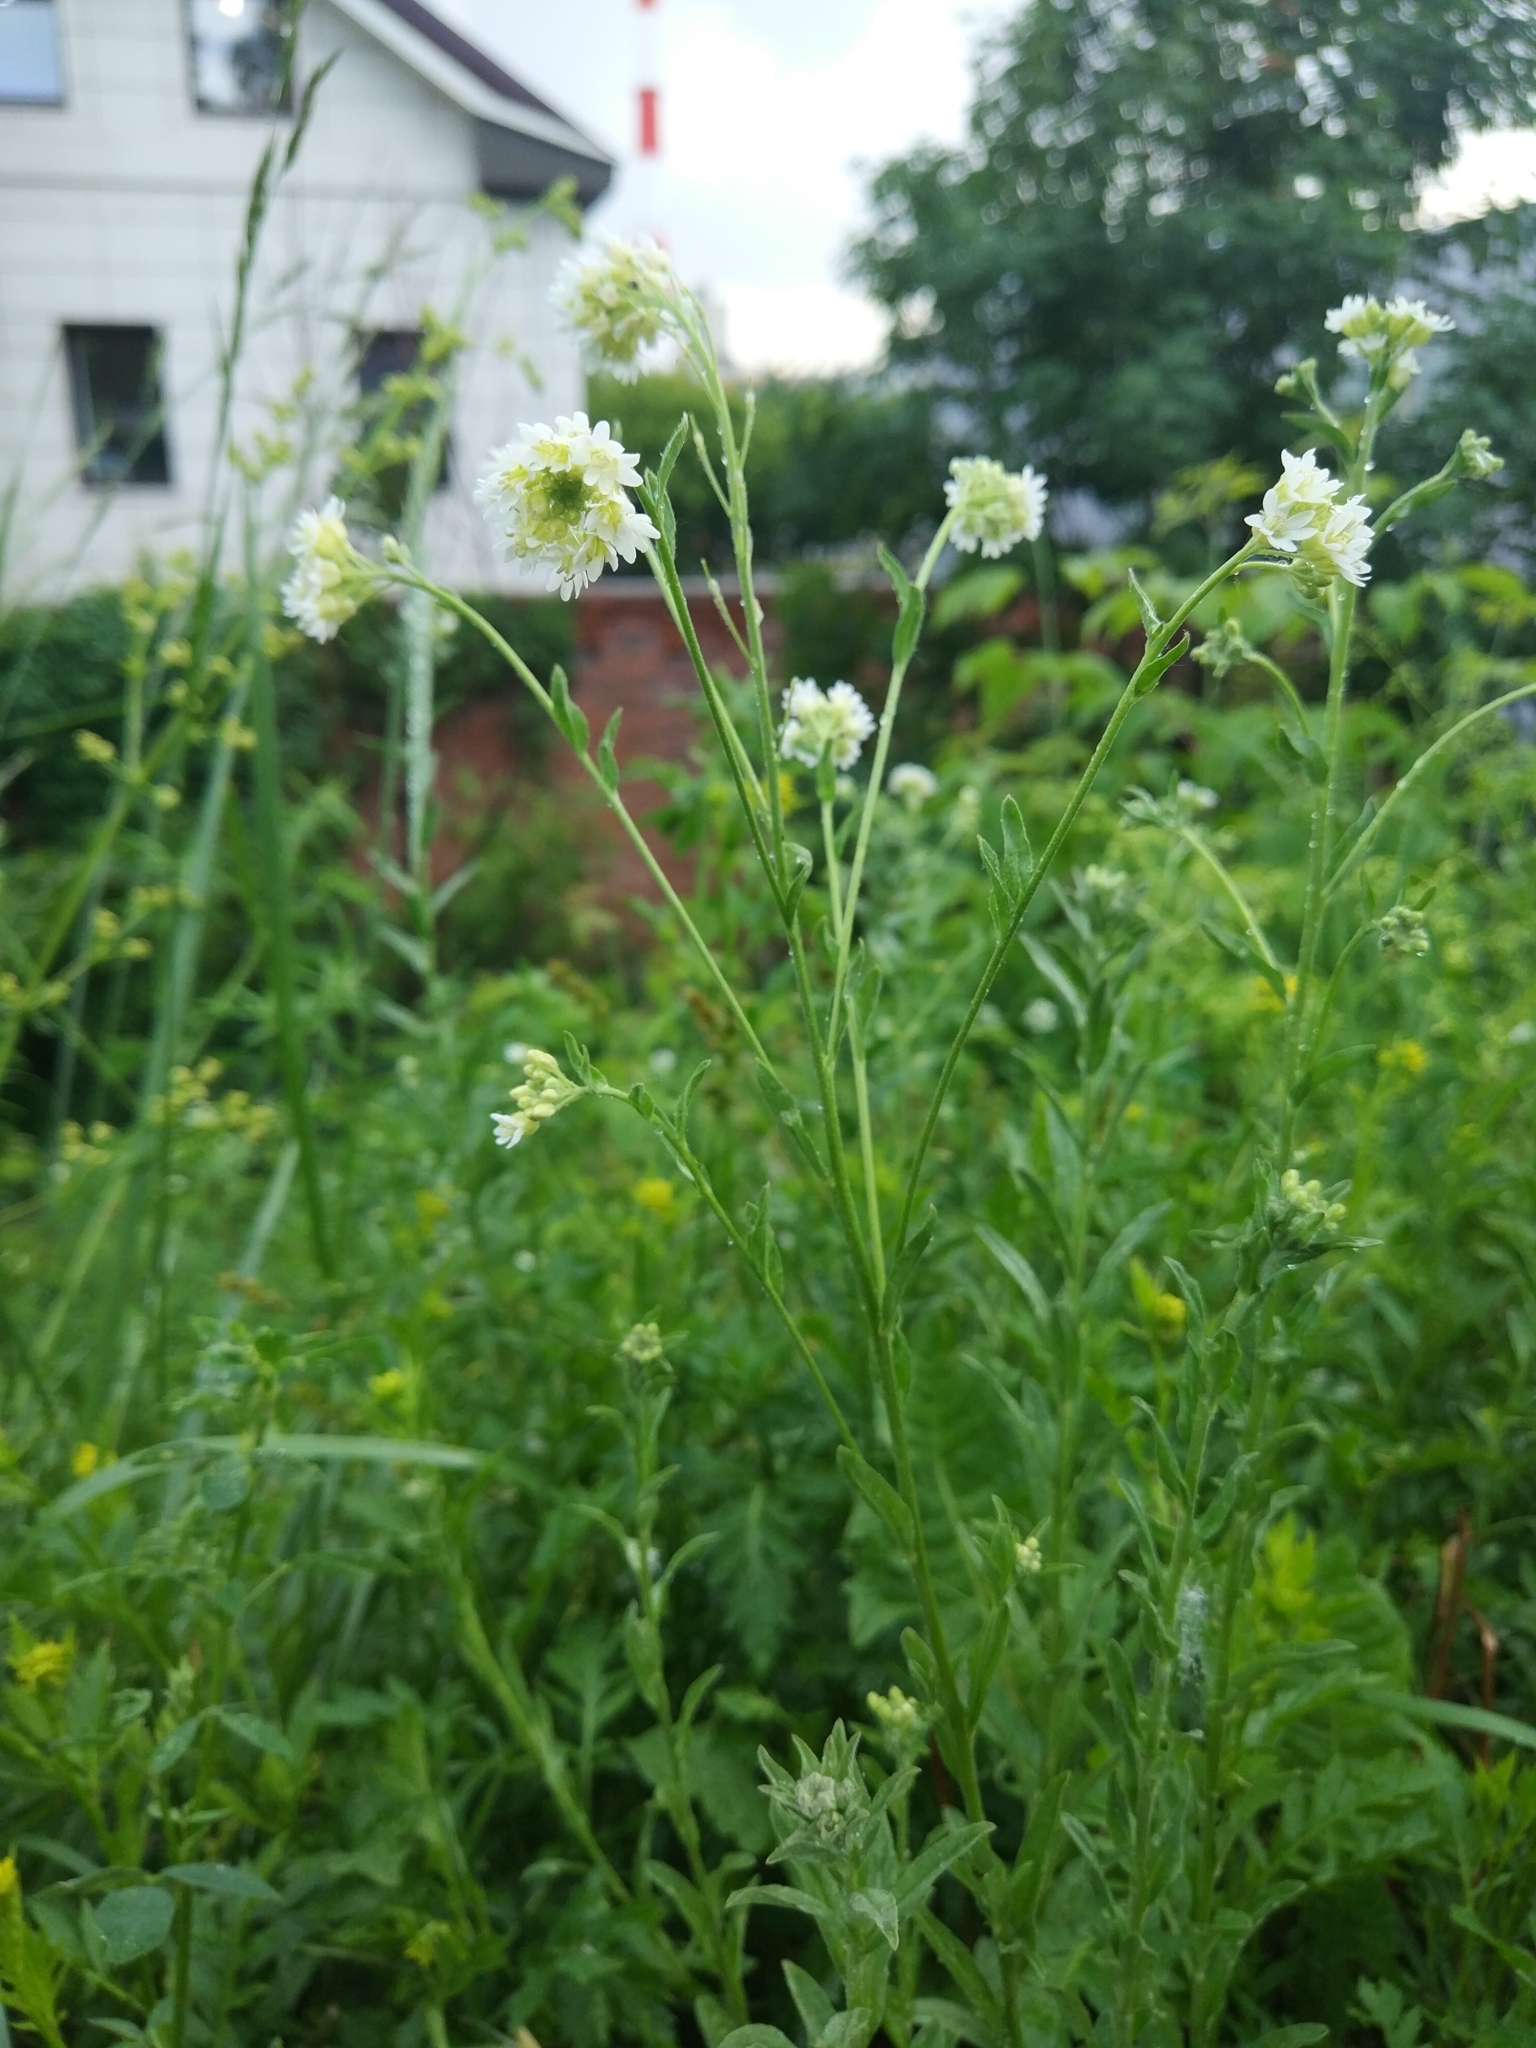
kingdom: Plantae
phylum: Tracheophyta
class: Magnoliopsida
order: Brassicales
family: Brassicaceae
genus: Berteroa
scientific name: Berteroa incana
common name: Hoary alison
